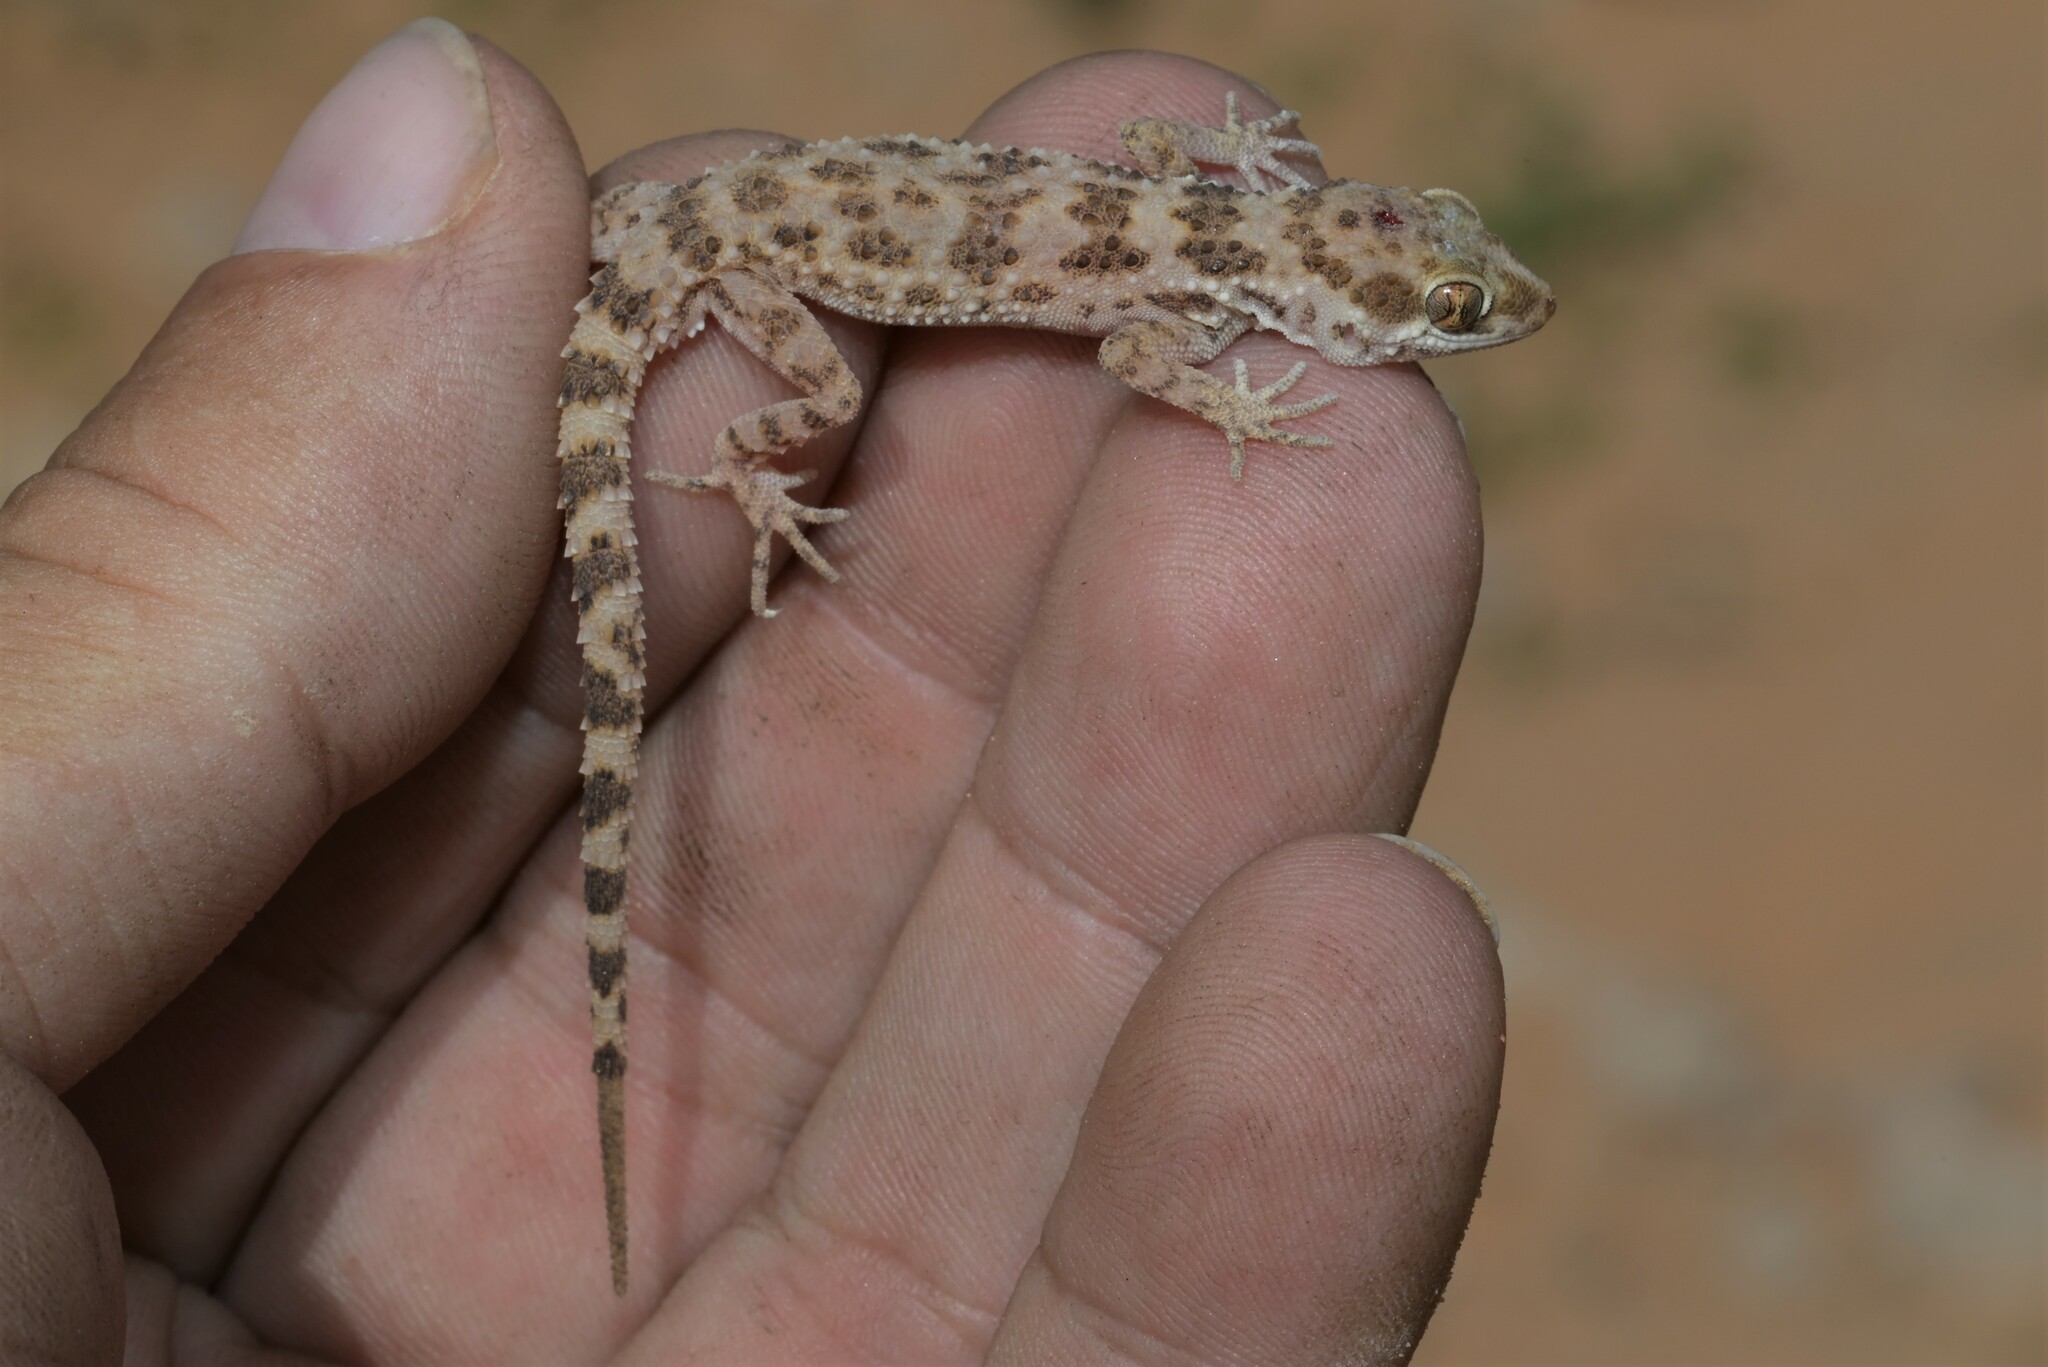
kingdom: Animalia
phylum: Chordata
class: Squamata
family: Gekkonidae
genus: Bunopus
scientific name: Bunopus tuberculatus
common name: Southern tuberculated gecko
